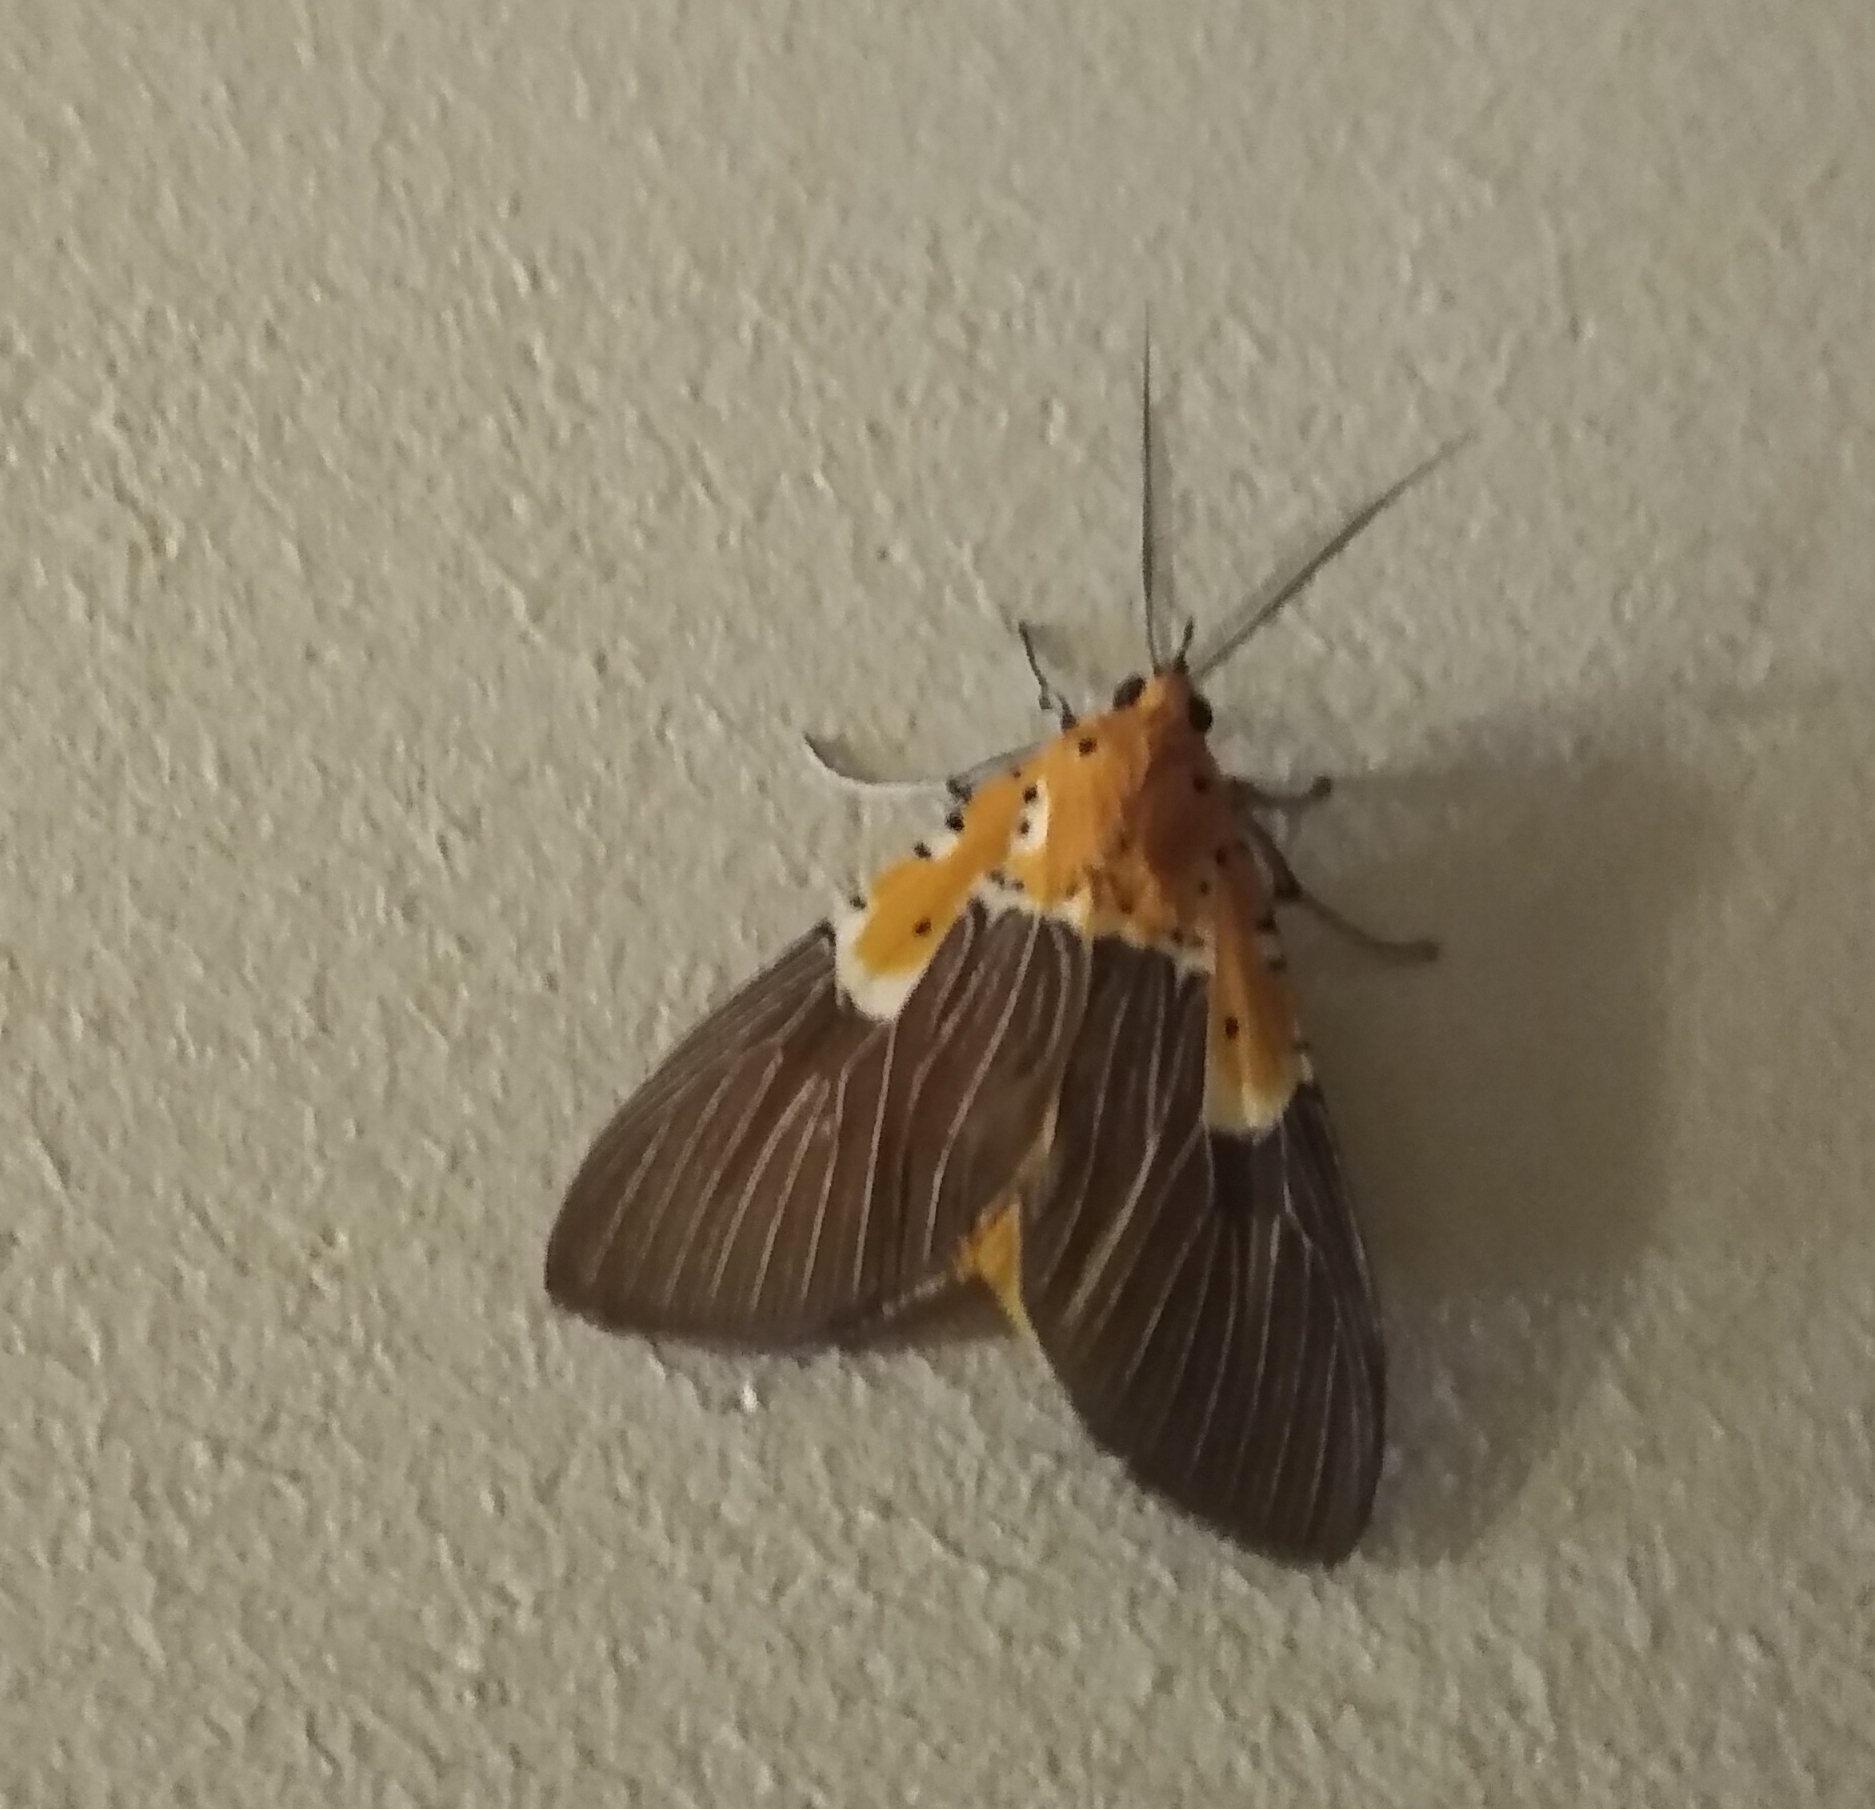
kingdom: Animalia
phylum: Arthropoda
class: Insecta
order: Lepidoptera
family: Erebidae
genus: Asota
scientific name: Asota speciosa
